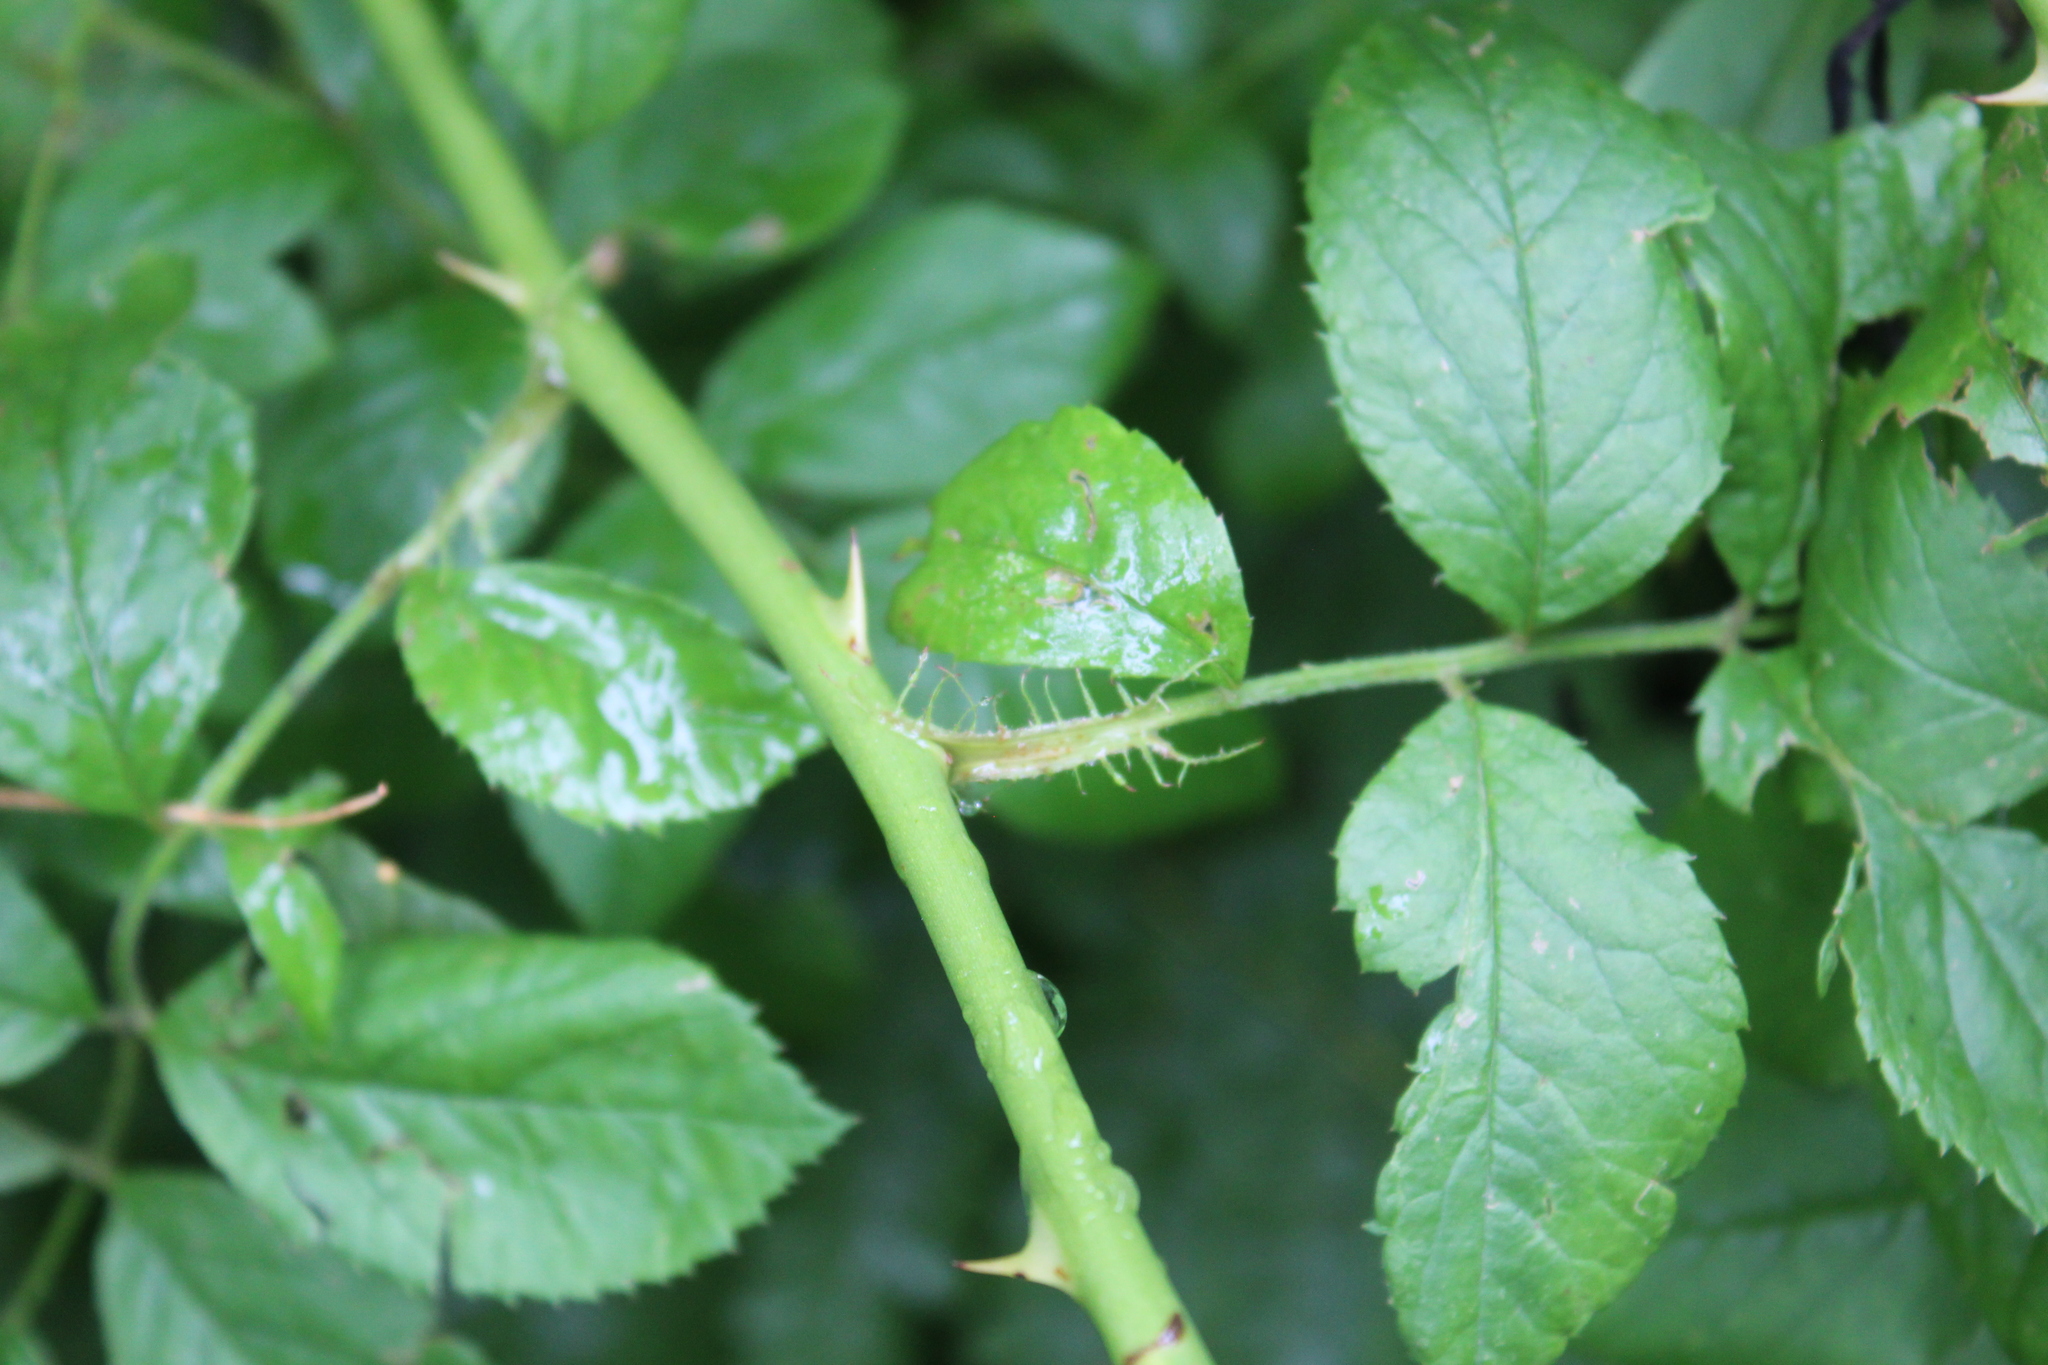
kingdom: Plantae
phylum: Tracheophyta
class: Magnoliopsida
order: Rosales
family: Rosaceae
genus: Rosa
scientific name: Rosa multiflora
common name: Multiflora rose
